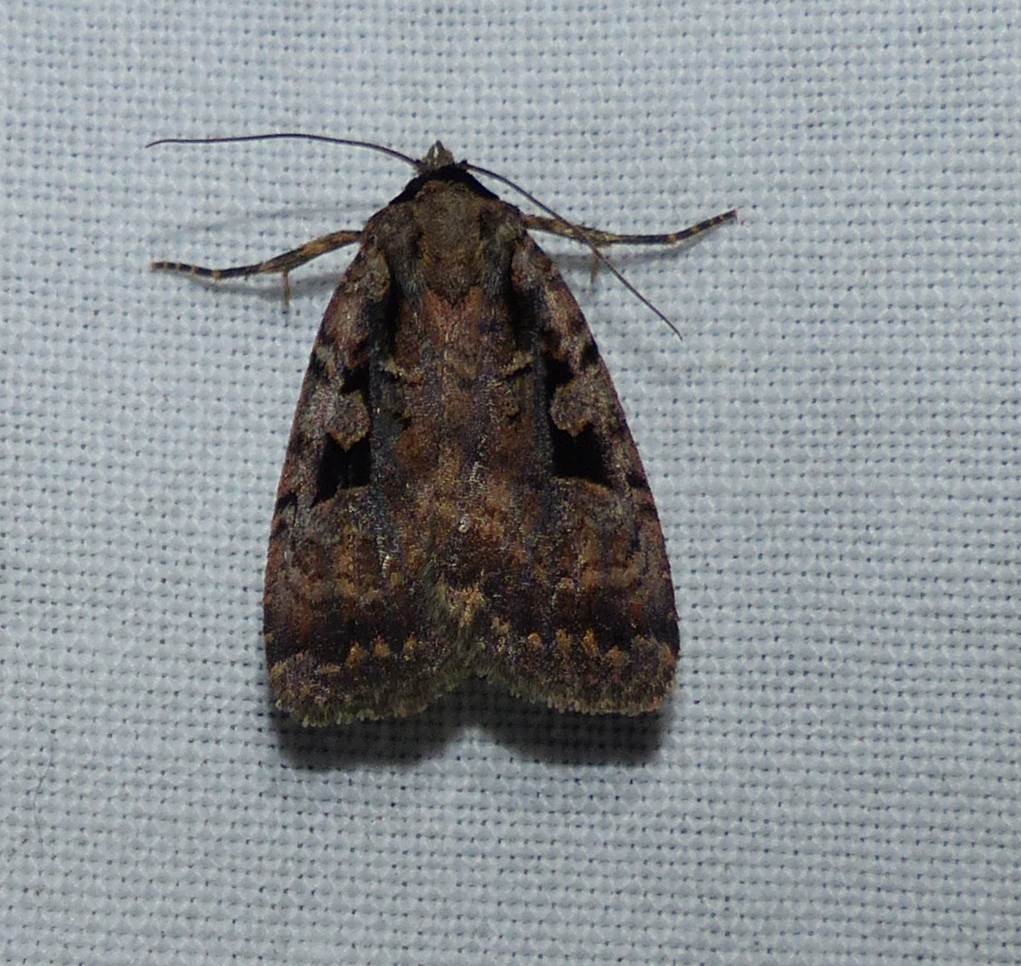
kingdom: Animalia
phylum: Arthropoda
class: Insecta
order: Lepidoptera
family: Noctuidae
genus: Eueretagrotis
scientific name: Eueretagrotis perattentus
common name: Two-spot dart moth
